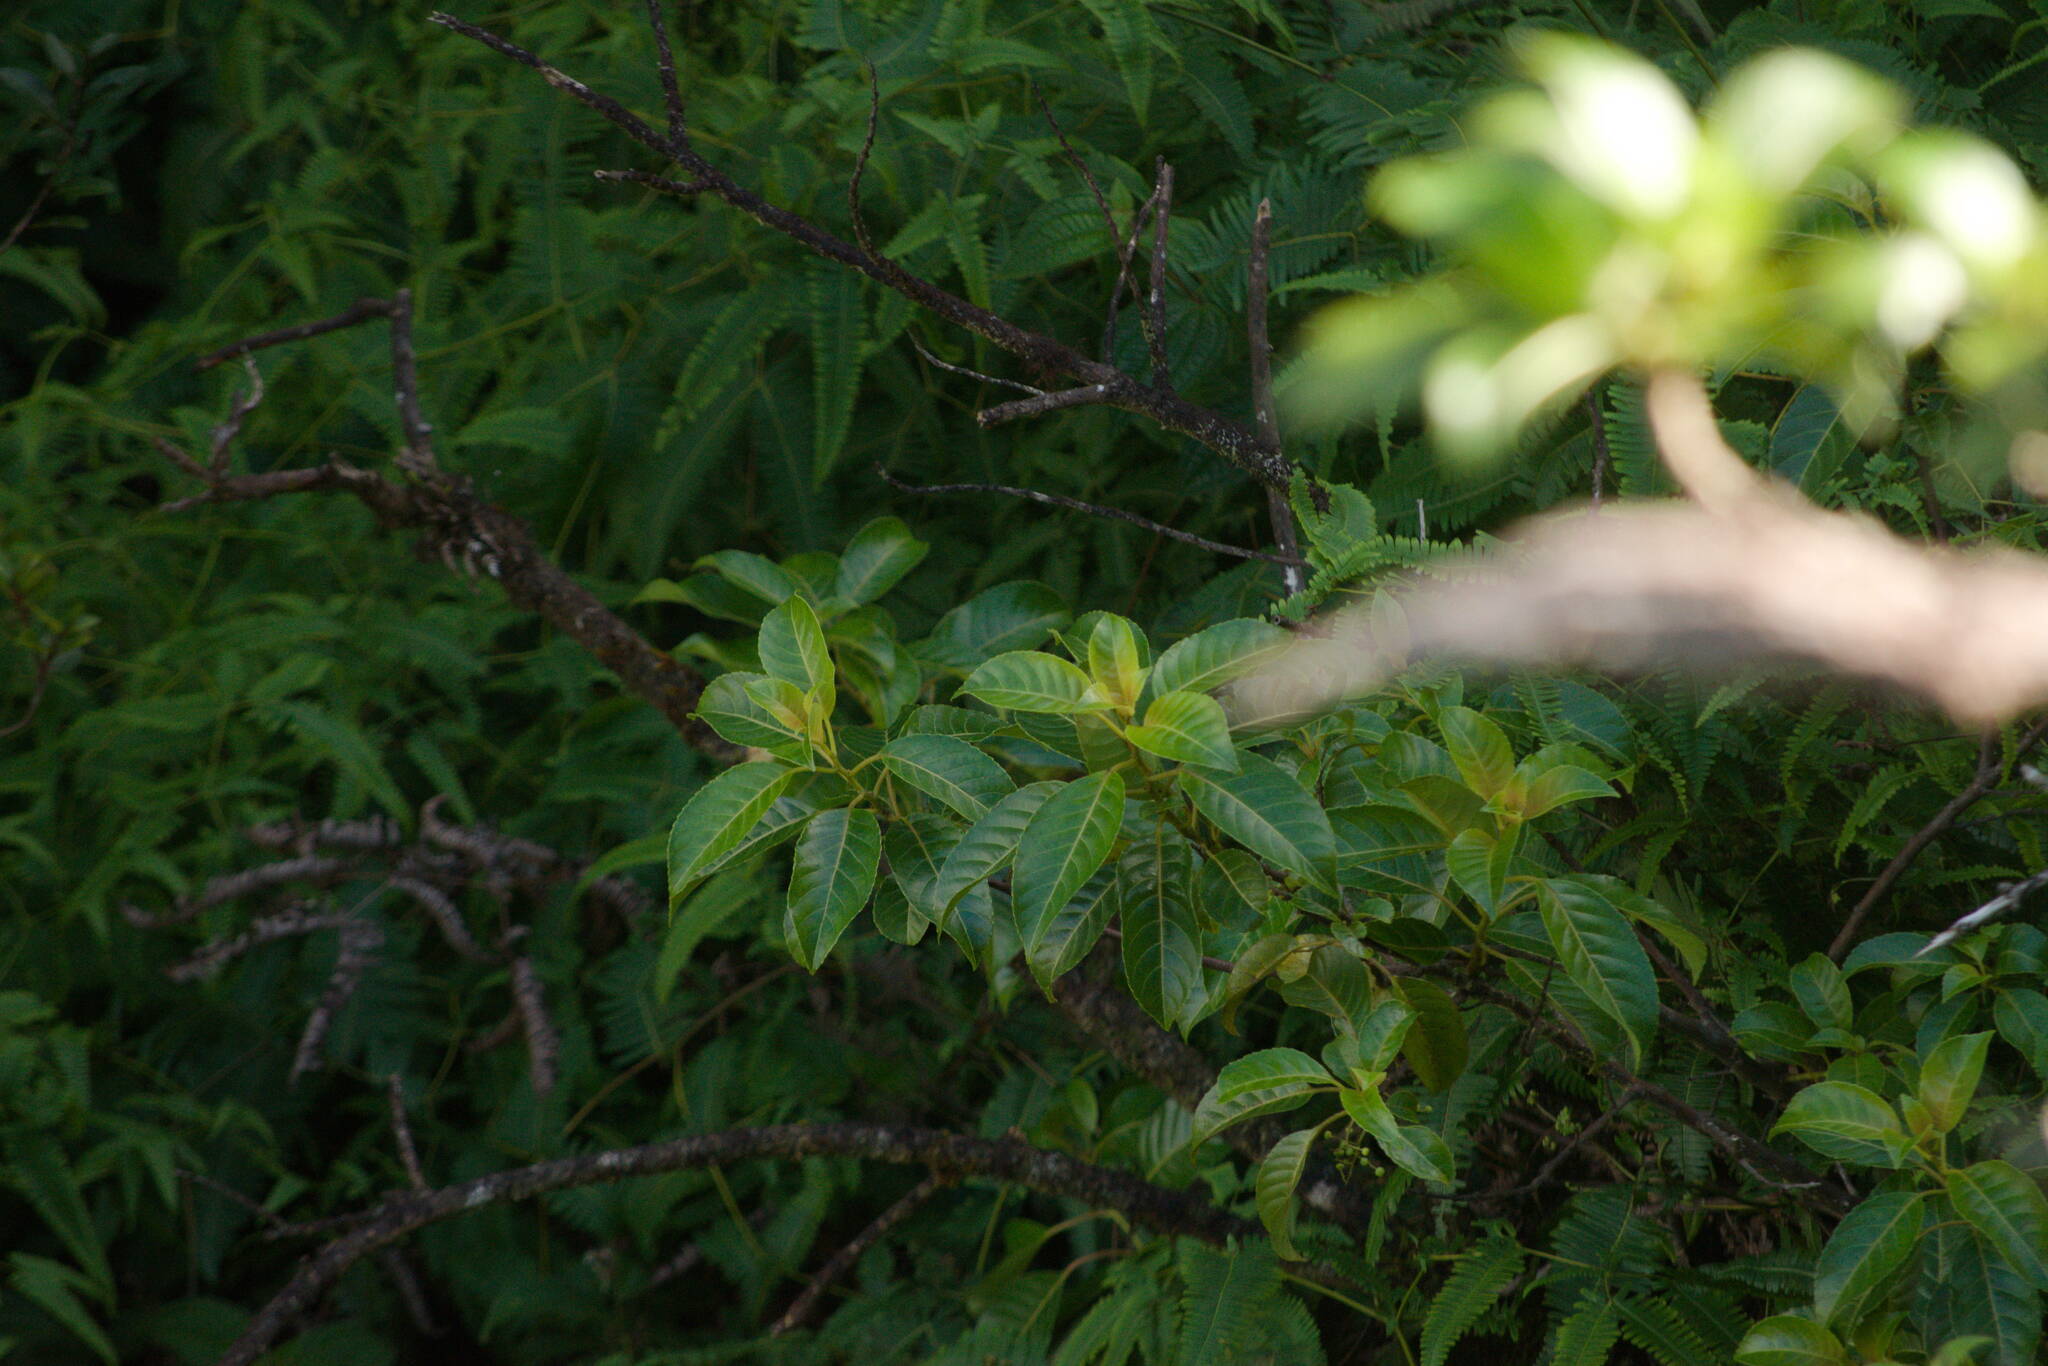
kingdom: Plantae
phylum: Tracheophyta
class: Magnoliopsida
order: Huerteales
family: Dipentodontaceae
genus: Perrottetia
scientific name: Perrottetia sandwicensis
